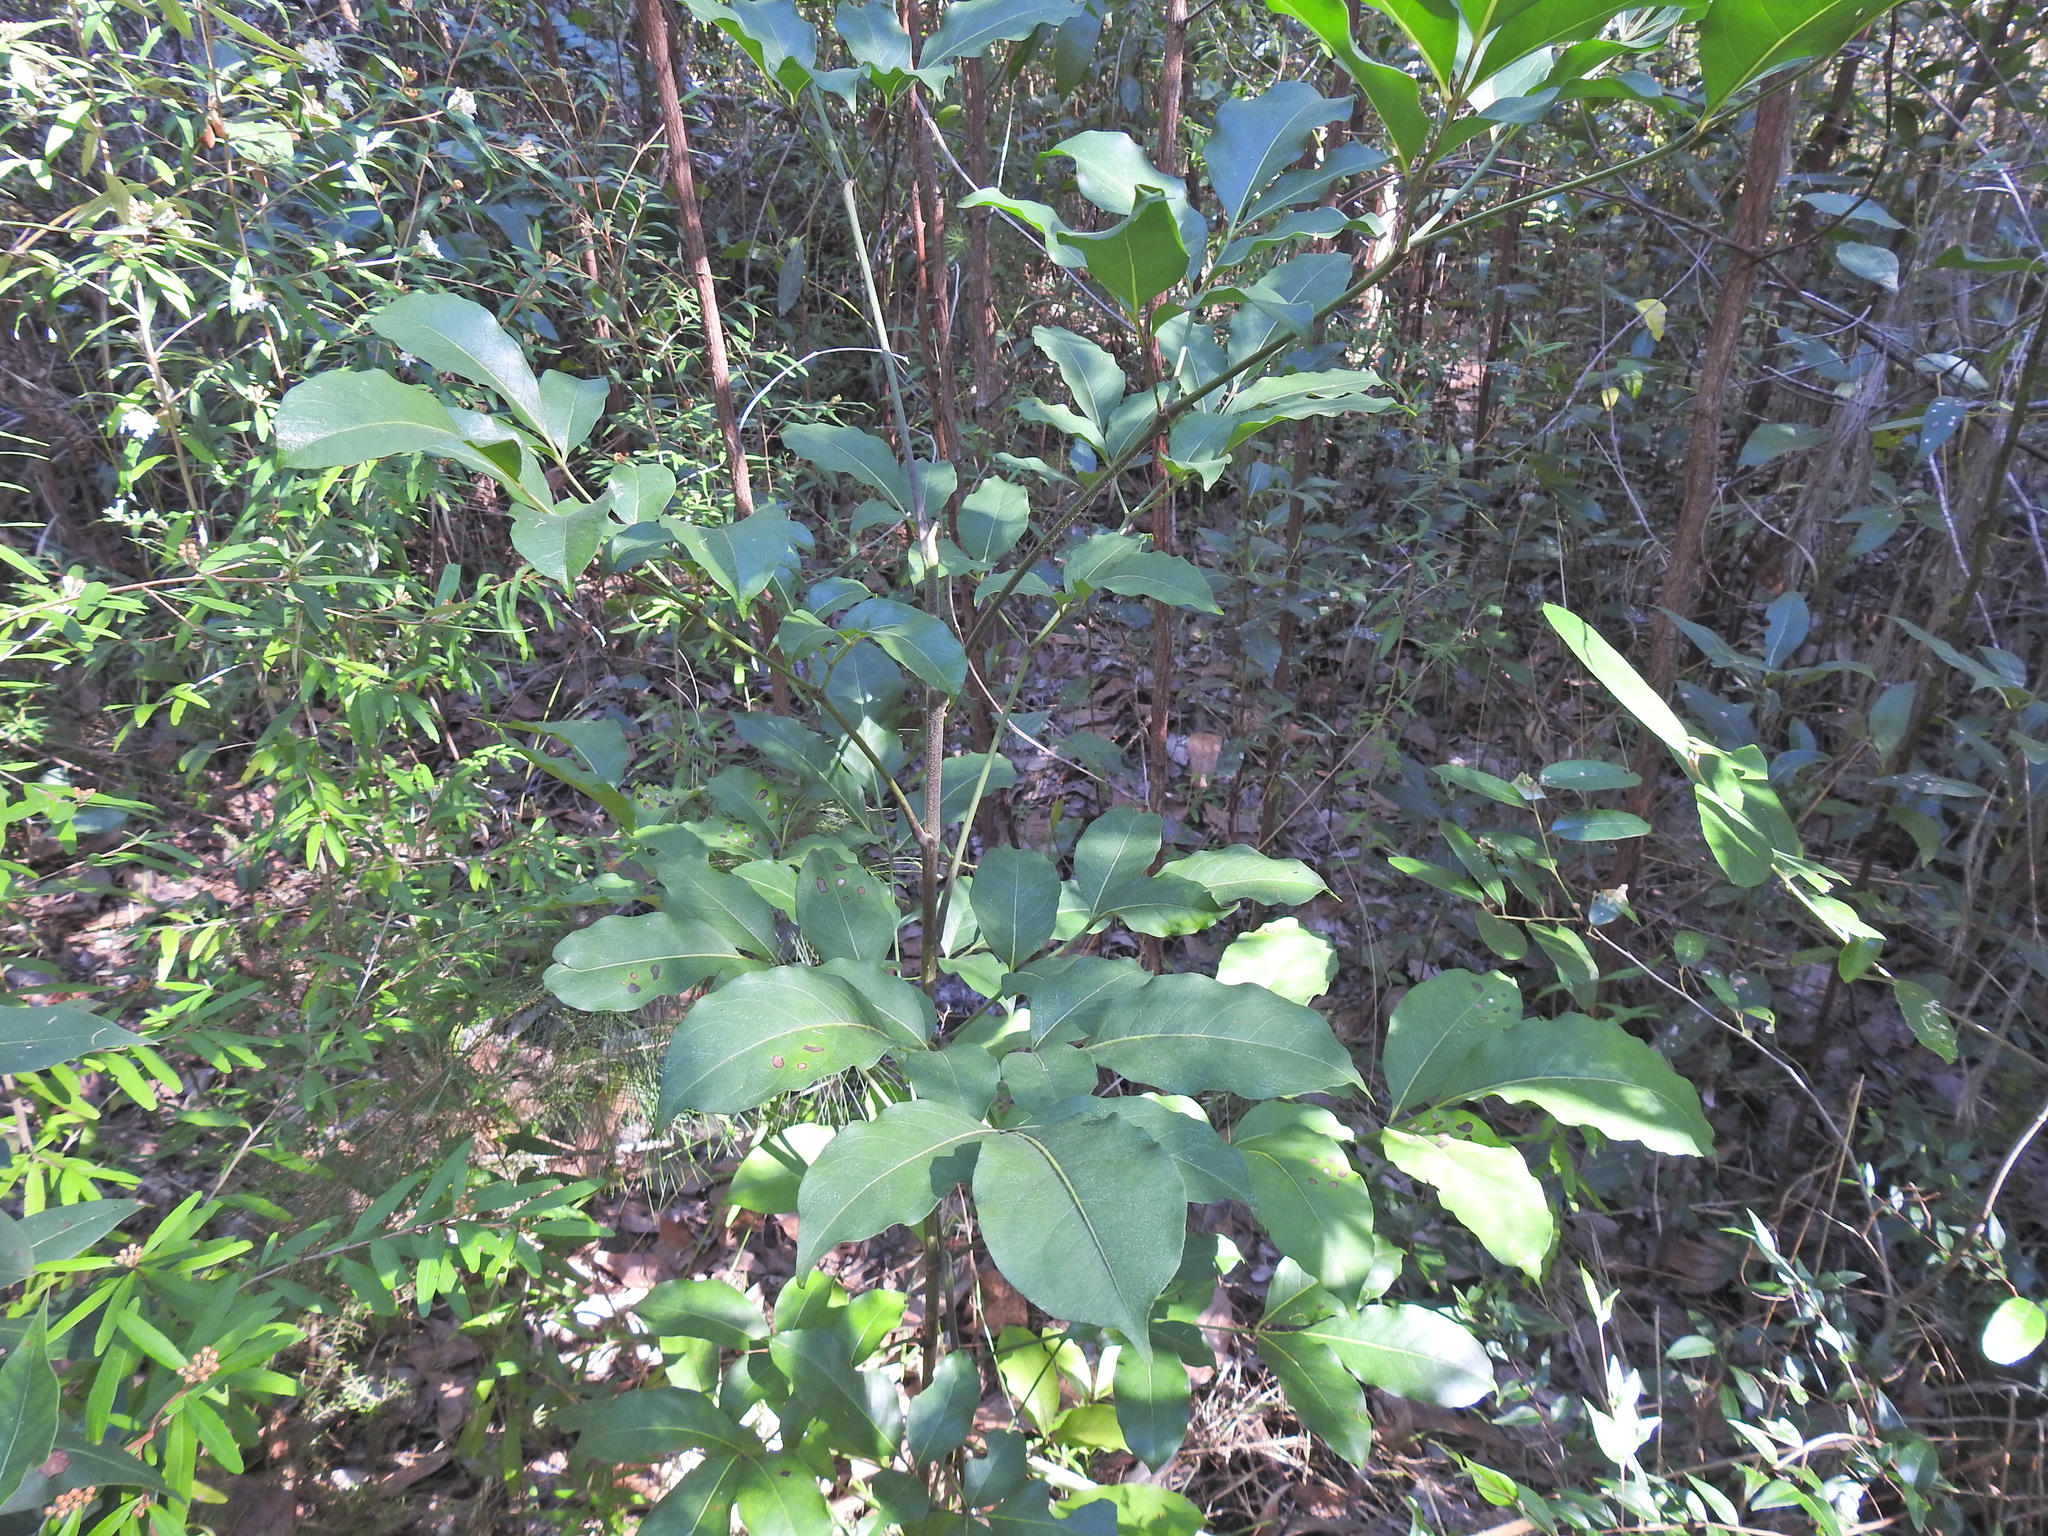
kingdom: Plantae
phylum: Tracheophyta
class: Magnoliopsida
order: Apiales
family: Araliaceae
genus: Polyscias
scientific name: Polyscias elegans
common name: Mowbulan whitewood
